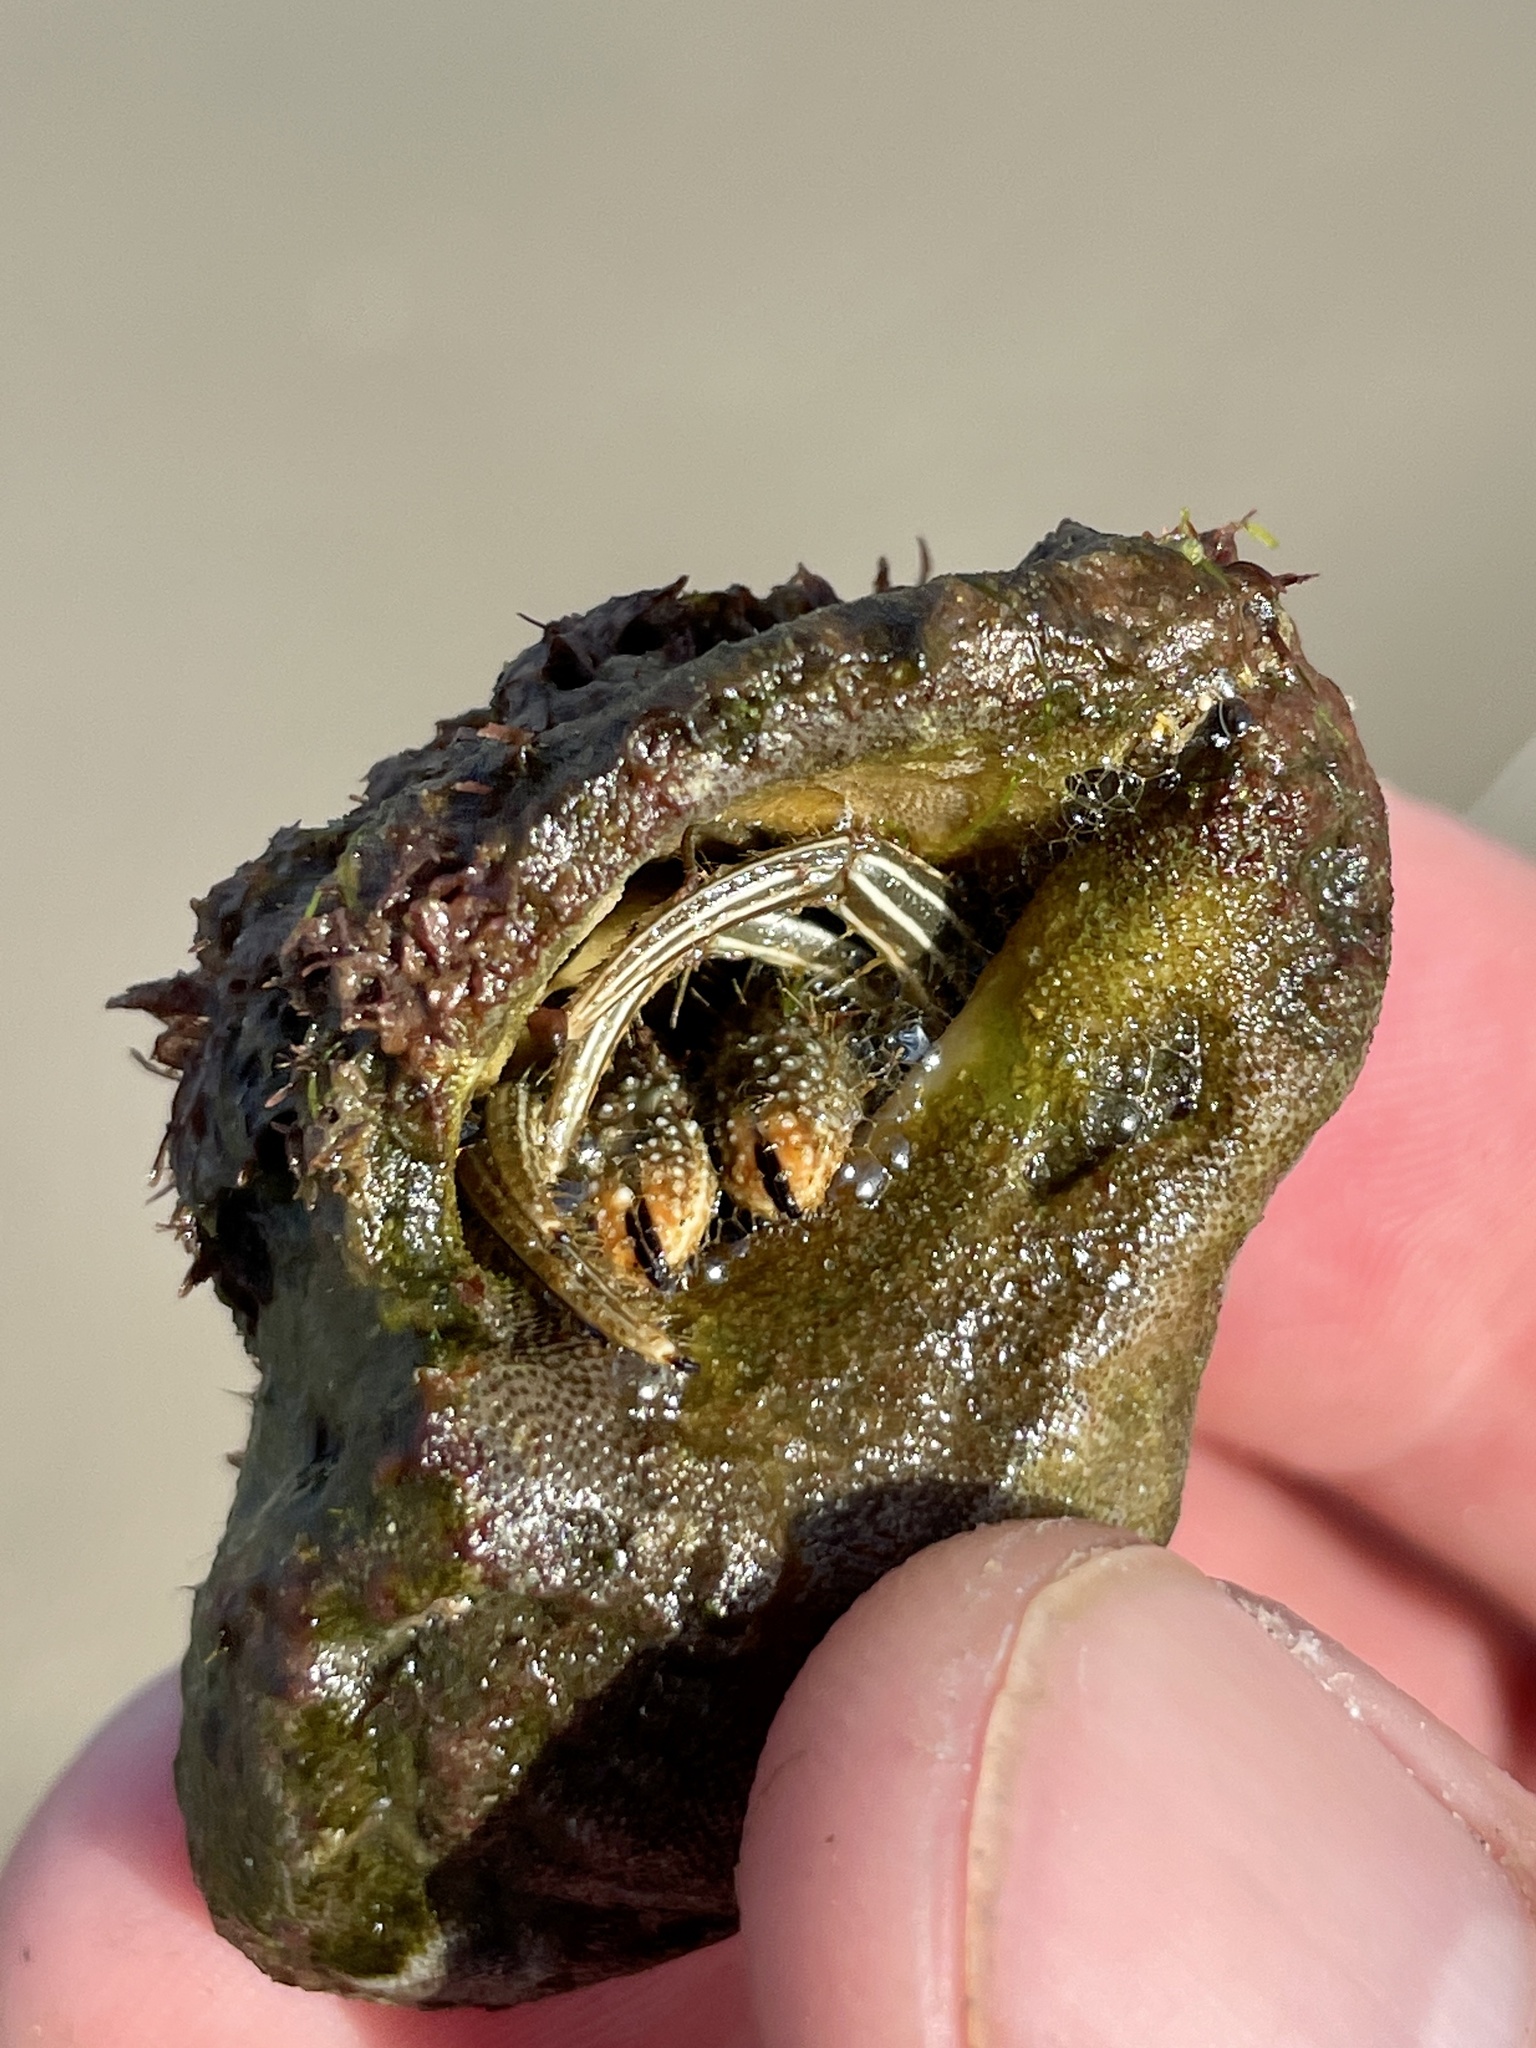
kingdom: Animalia
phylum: Arthropoda
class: Malacostraca
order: Decapoda
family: Diogenidae
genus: Clibanarius
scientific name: Clibanarius vittatus
